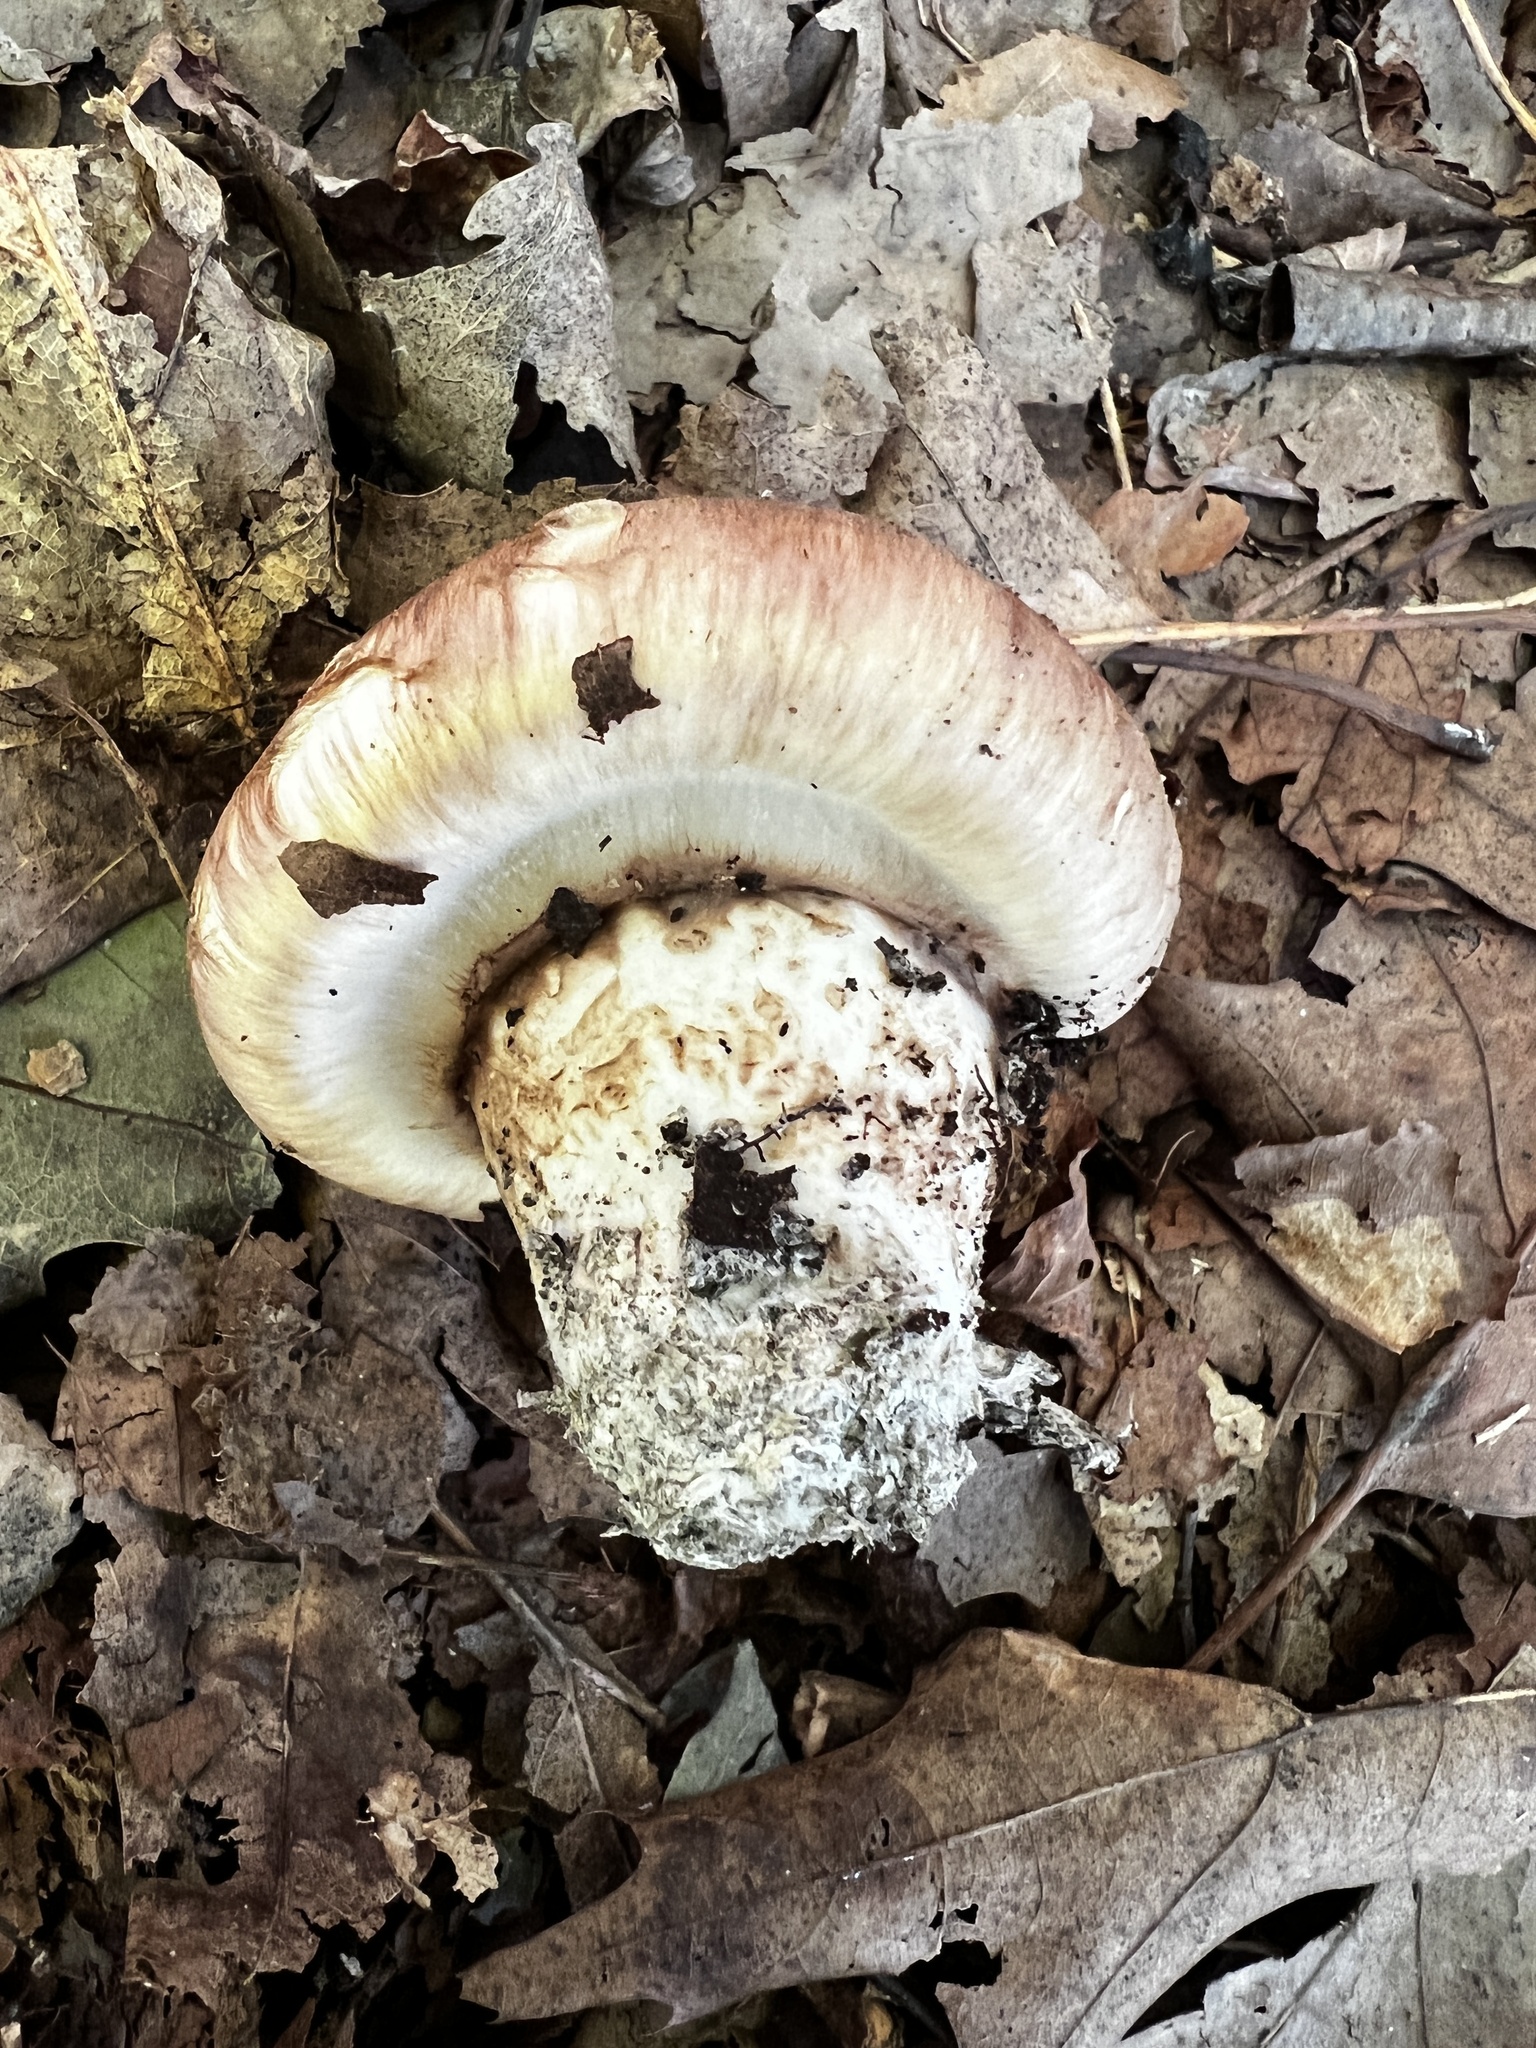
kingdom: Fungi
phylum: Basidiomycota
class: Agaricomycetes
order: Agaricales
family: Tricholomataceae
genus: Tricholoma
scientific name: Tricholoma caligatum
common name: True booted knight
